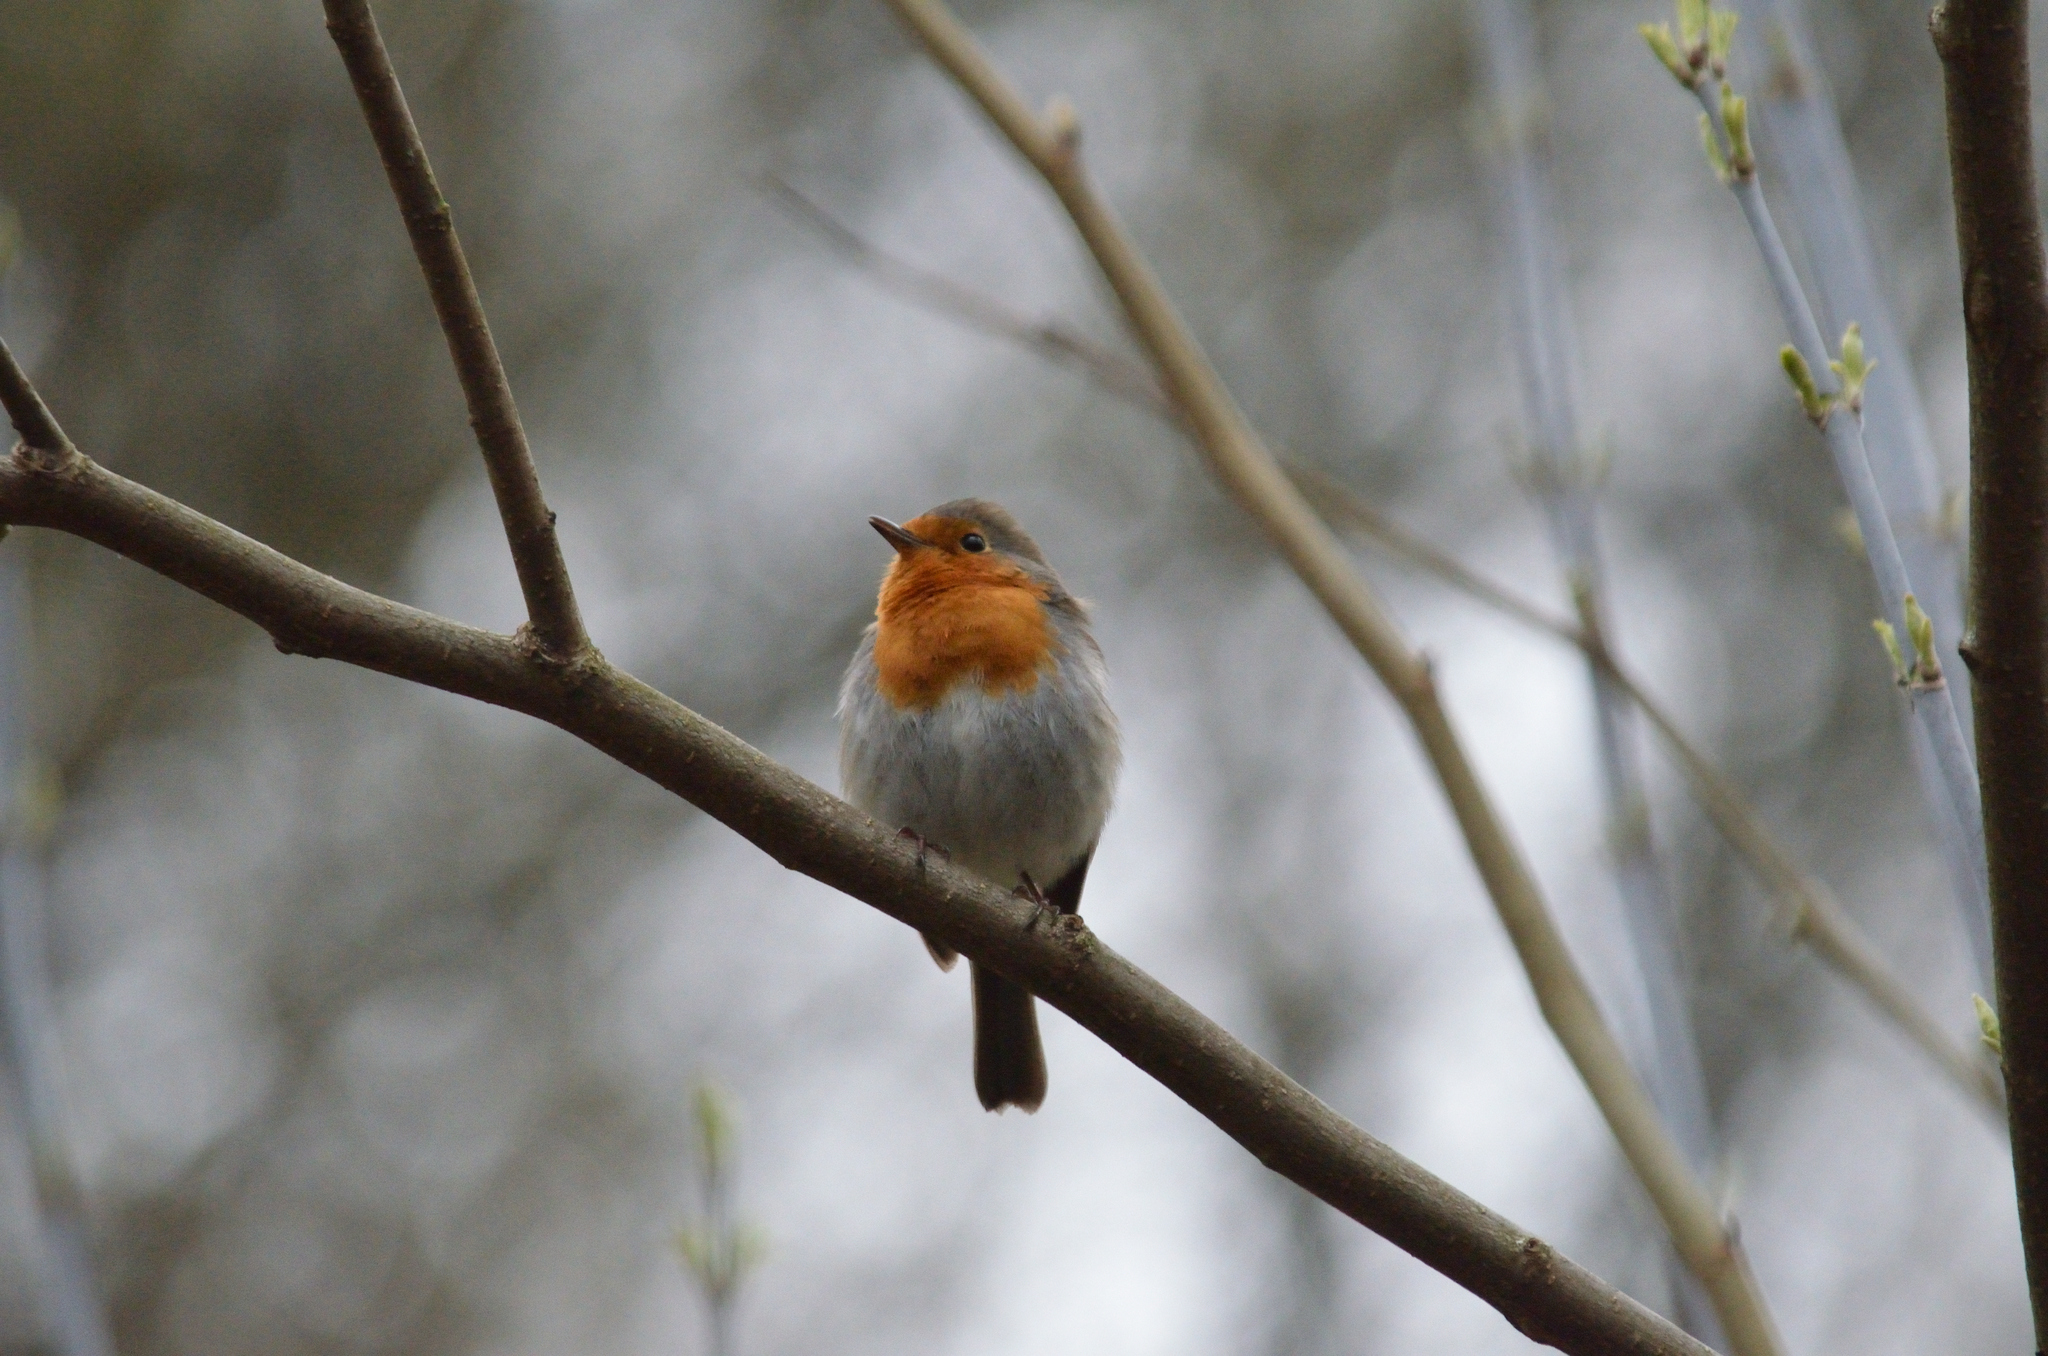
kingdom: Animalia
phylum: Chordata
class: Aves
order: Passeriformes
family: Muscicapidae
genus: Erithacus
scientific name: Erithacus rubecula
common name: European robin
